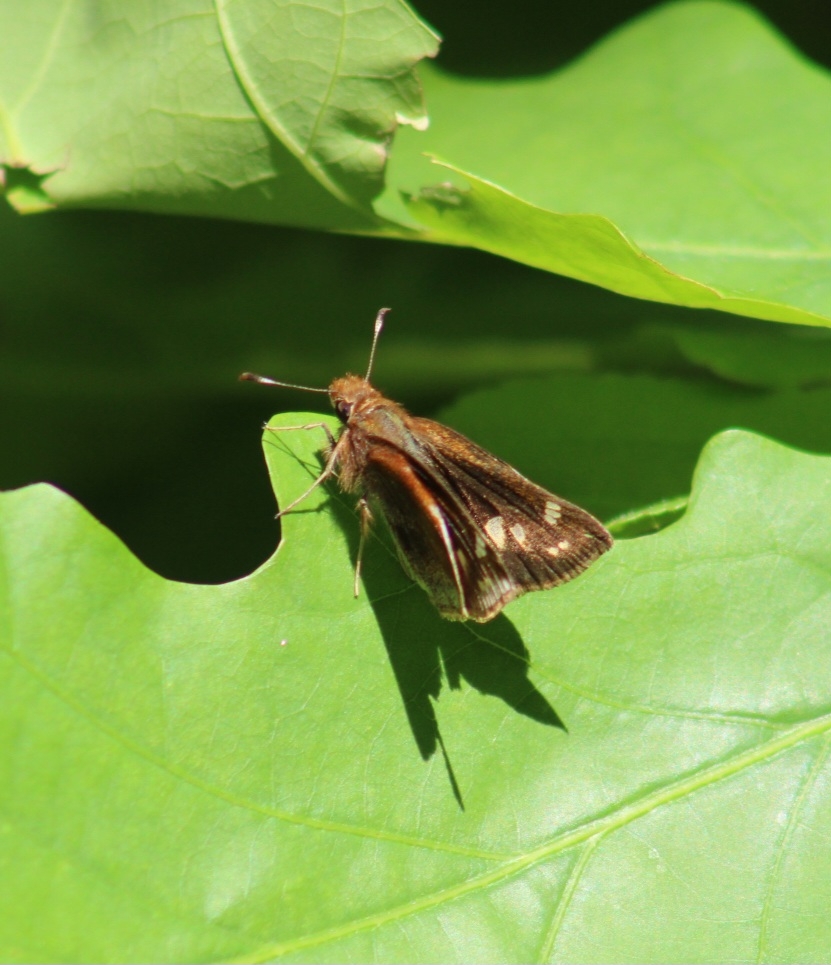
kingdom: Animalia
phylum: Arthropoda
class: Insecta
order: Lepidoptera
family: Hesperiidae
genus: Lon
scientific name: Lon zabulon
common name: Zabulon skipper
